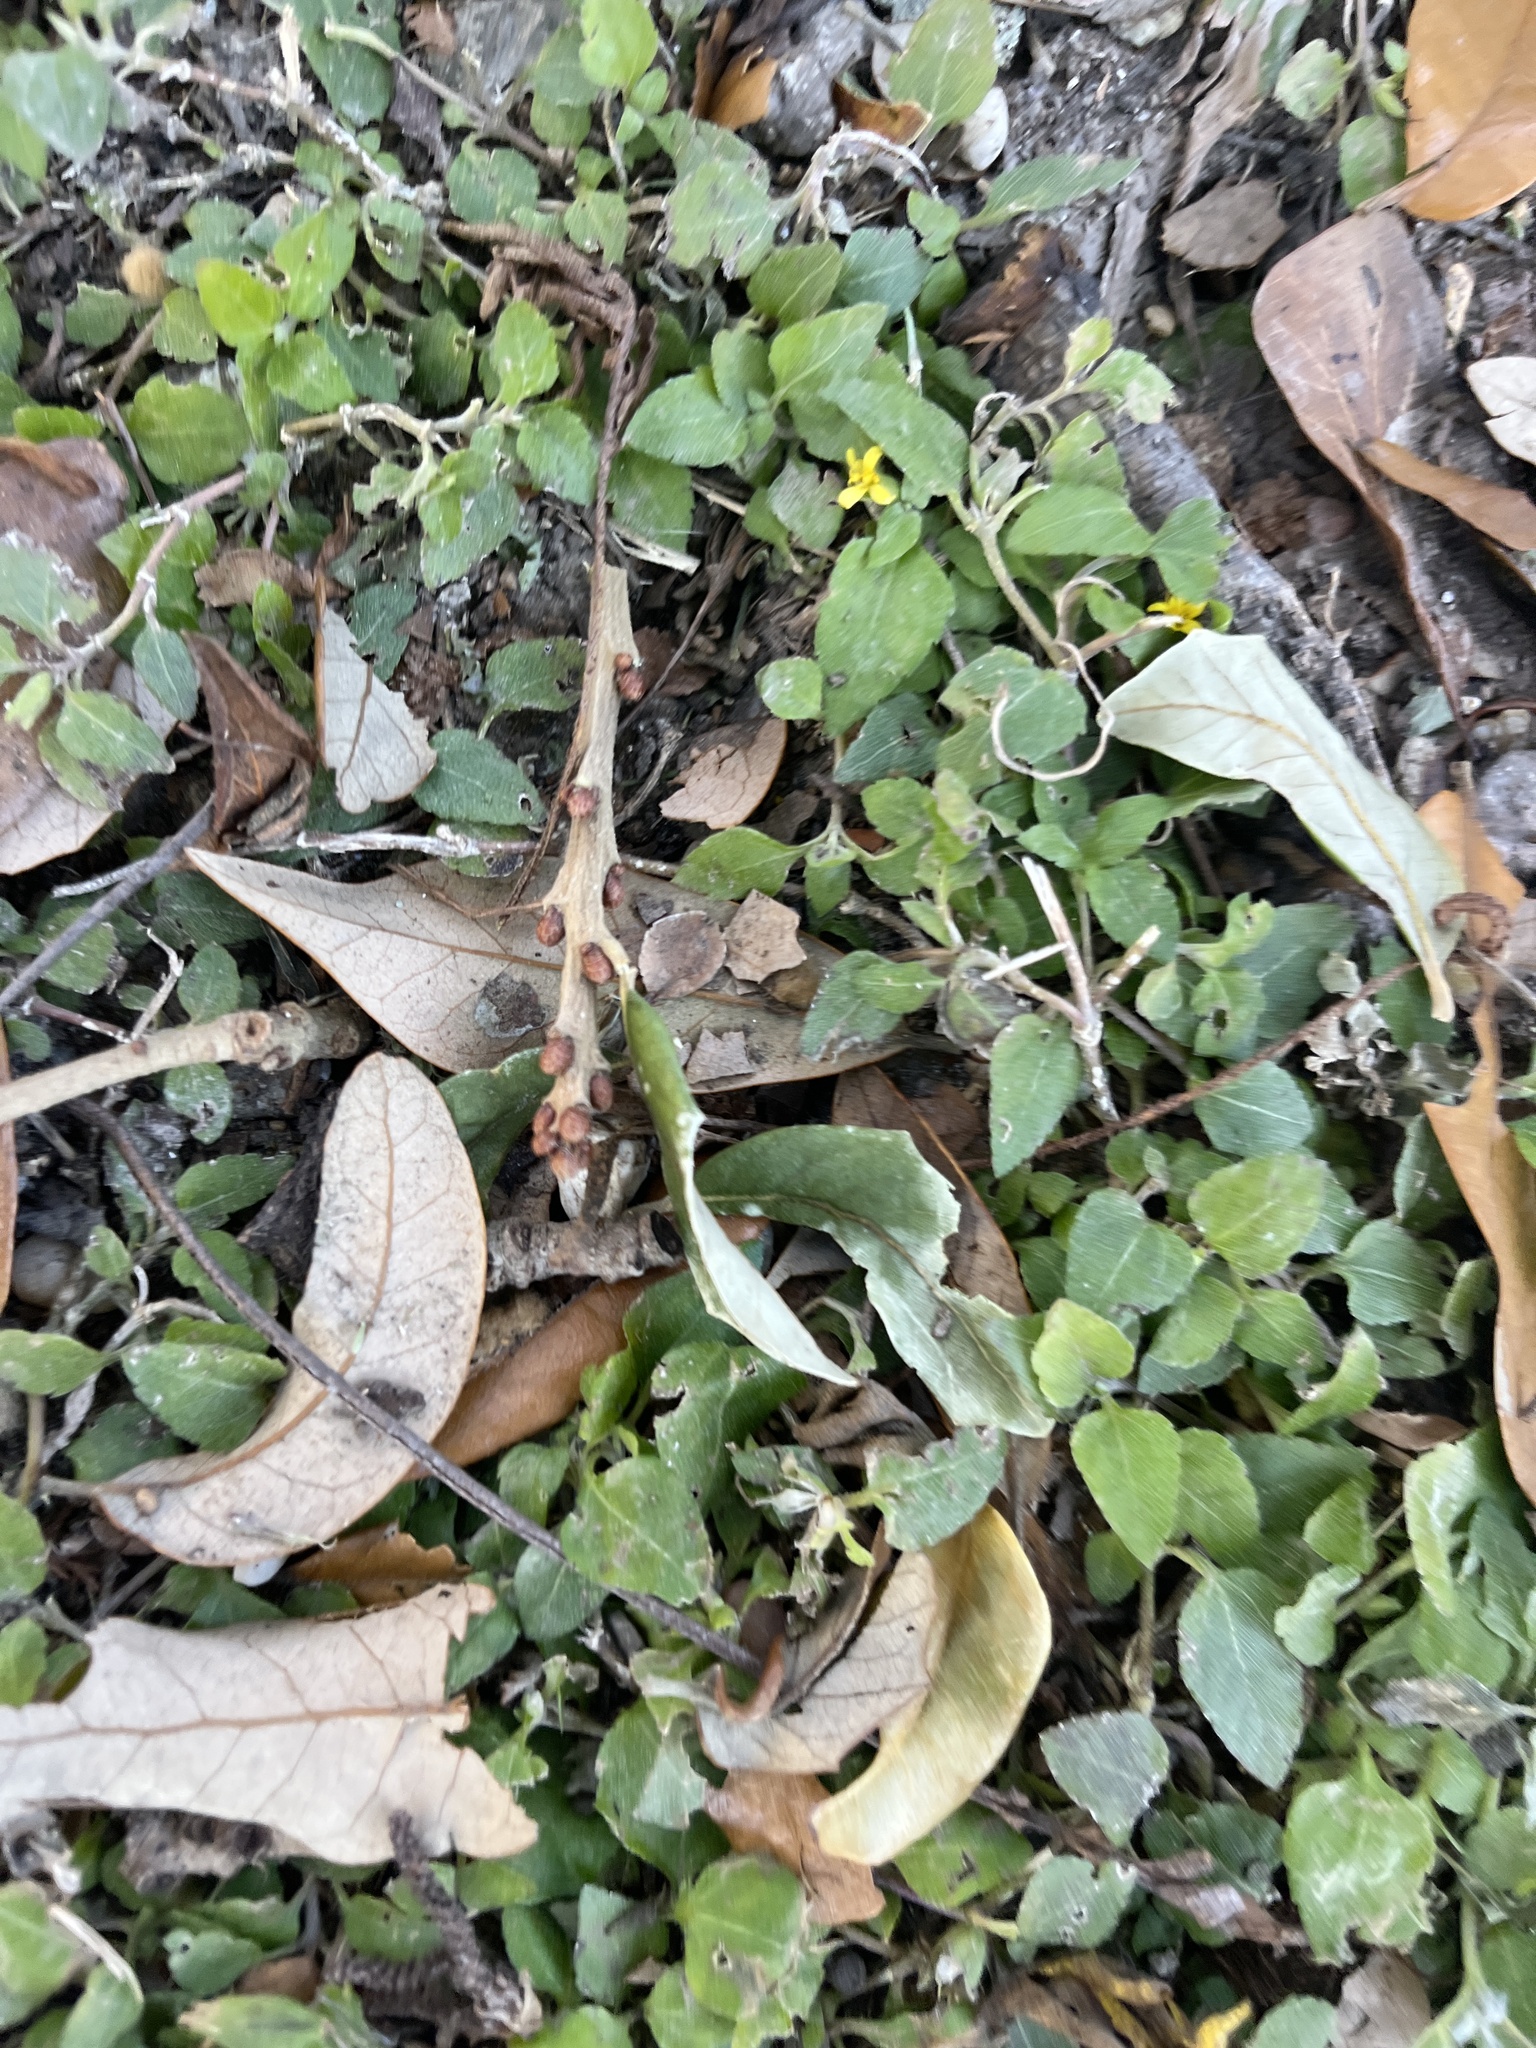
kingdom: Plantae
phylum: Tracheophyta
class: Magnoliopsida
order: Asterales
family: Asteraceae
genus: Calyptocarpus
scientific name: Calyptocarpus vialis
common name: Straggler daisy
